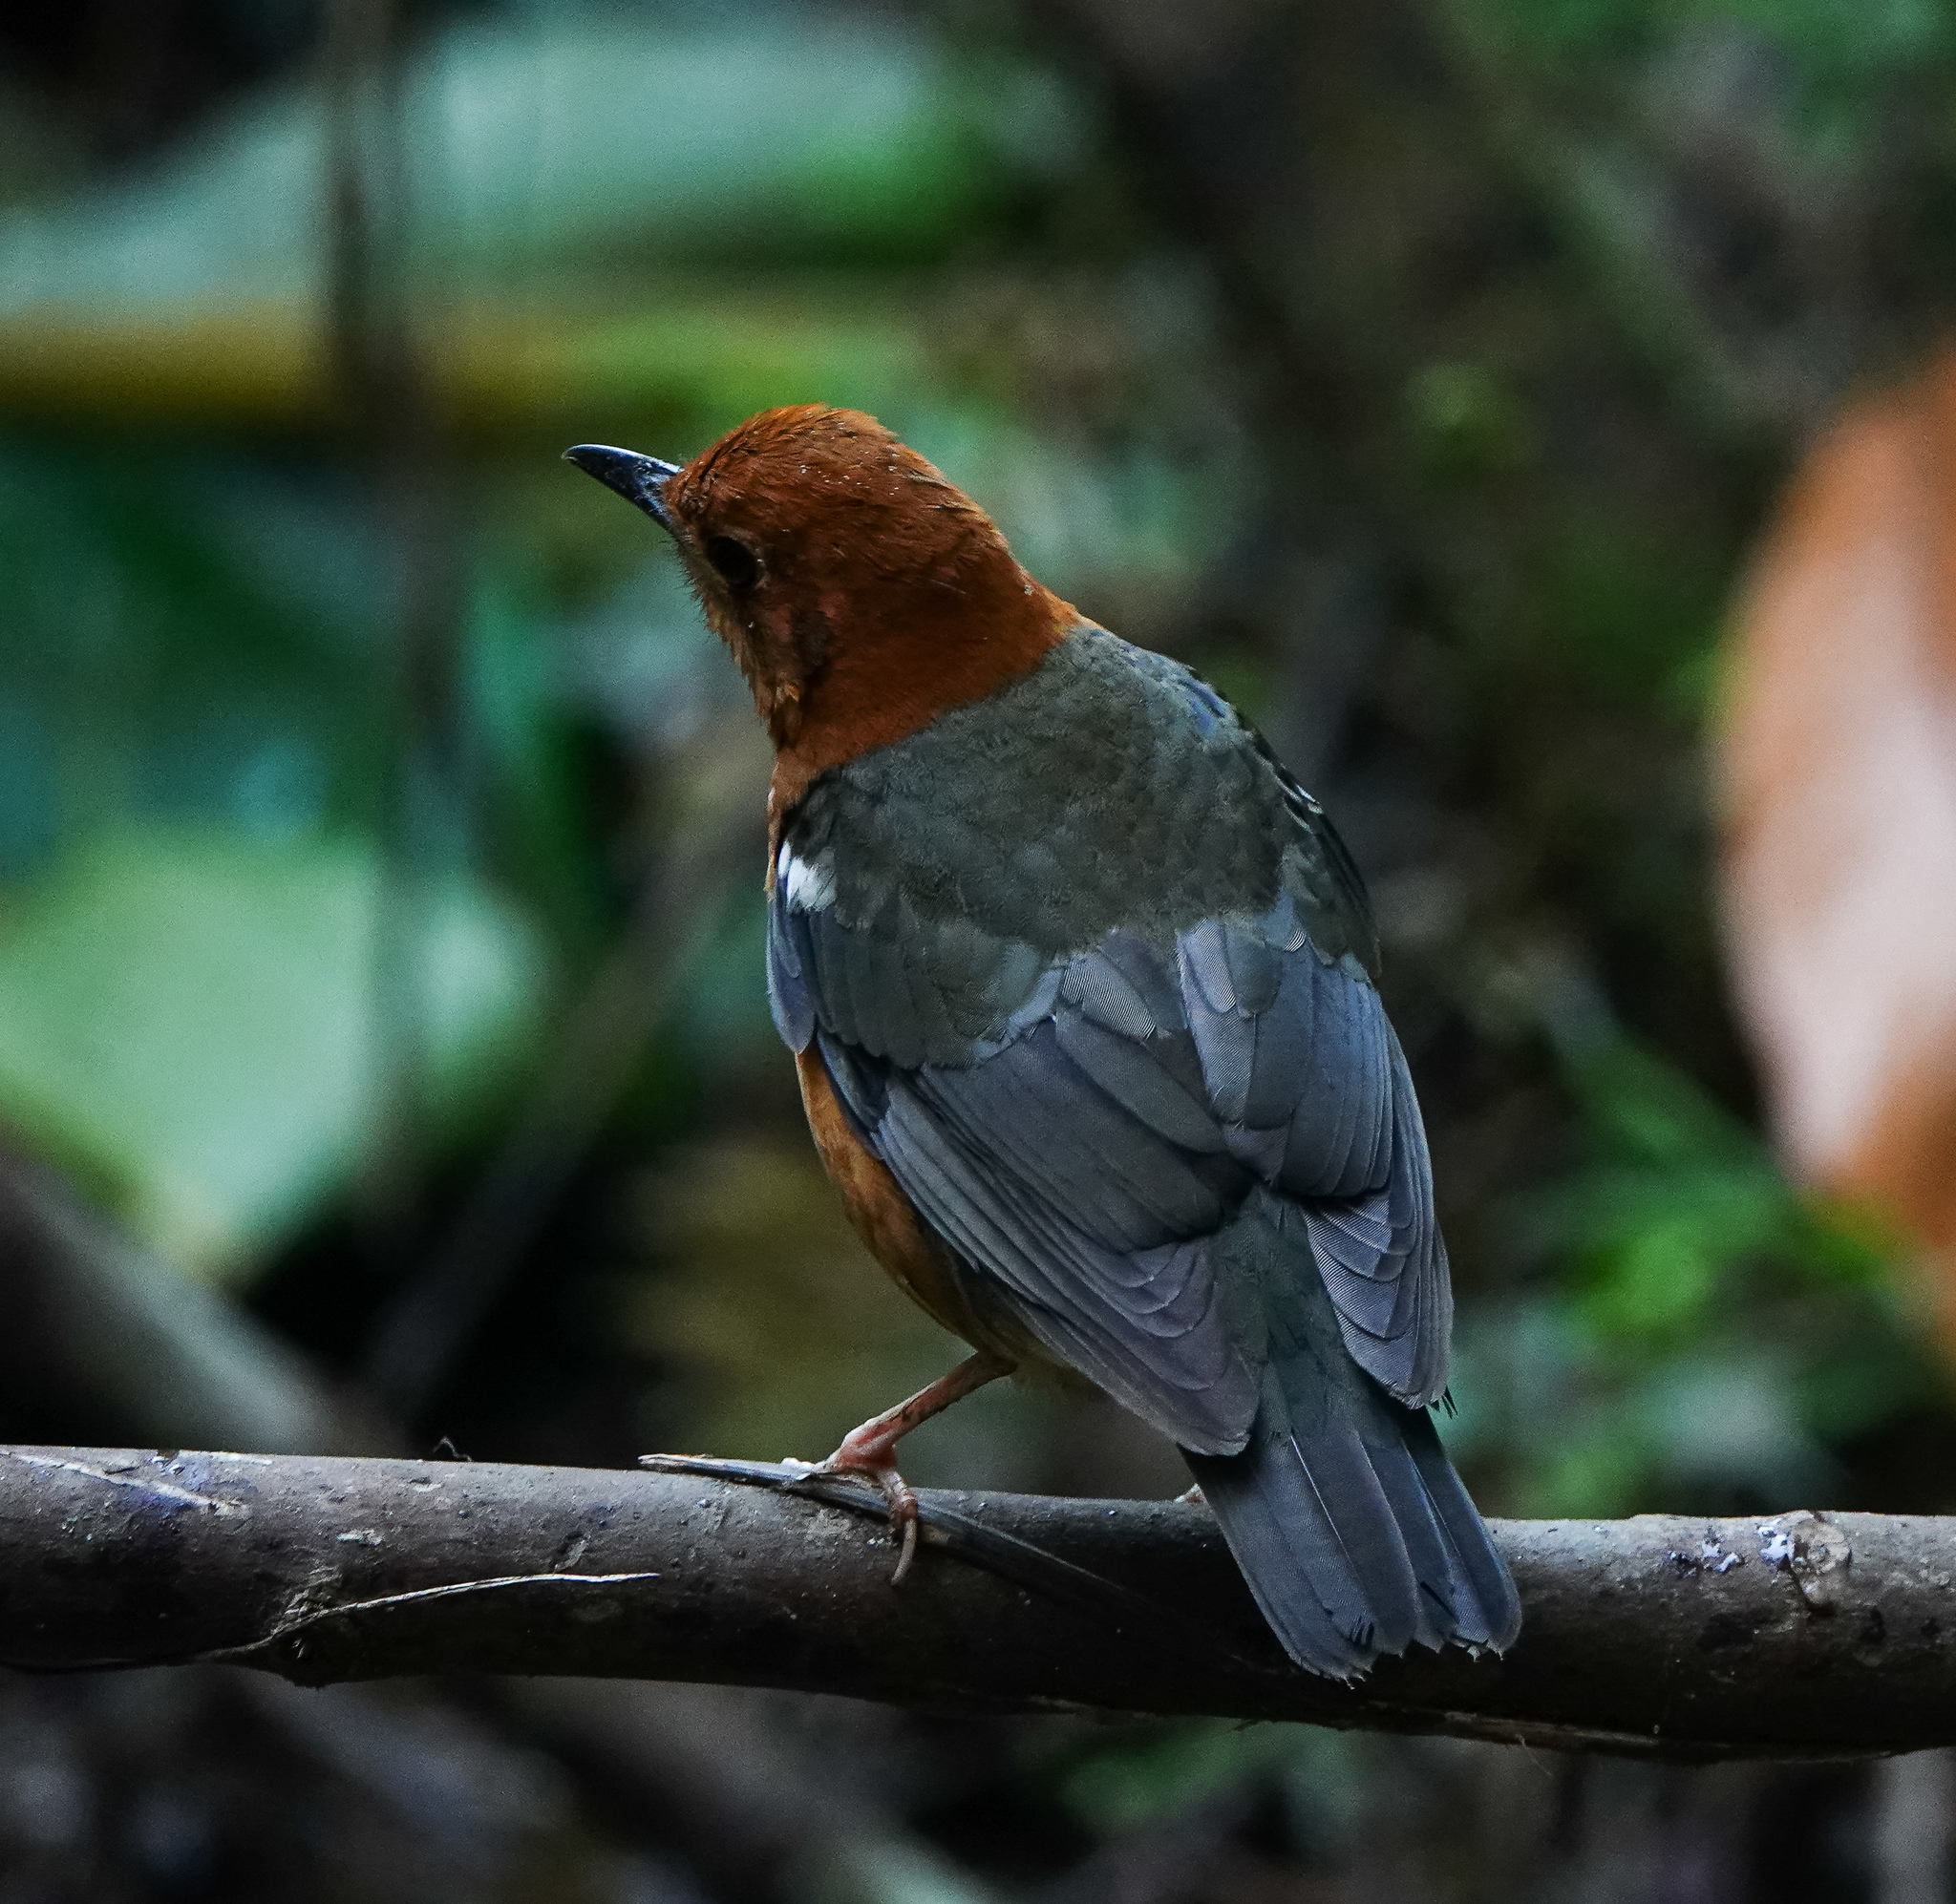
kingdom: Animalia
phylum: Chordata
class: Aves
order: Passeriformes
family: Turdidae
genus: Geokichla
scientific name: Geokichla citrina
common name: Orange-headed thrush
